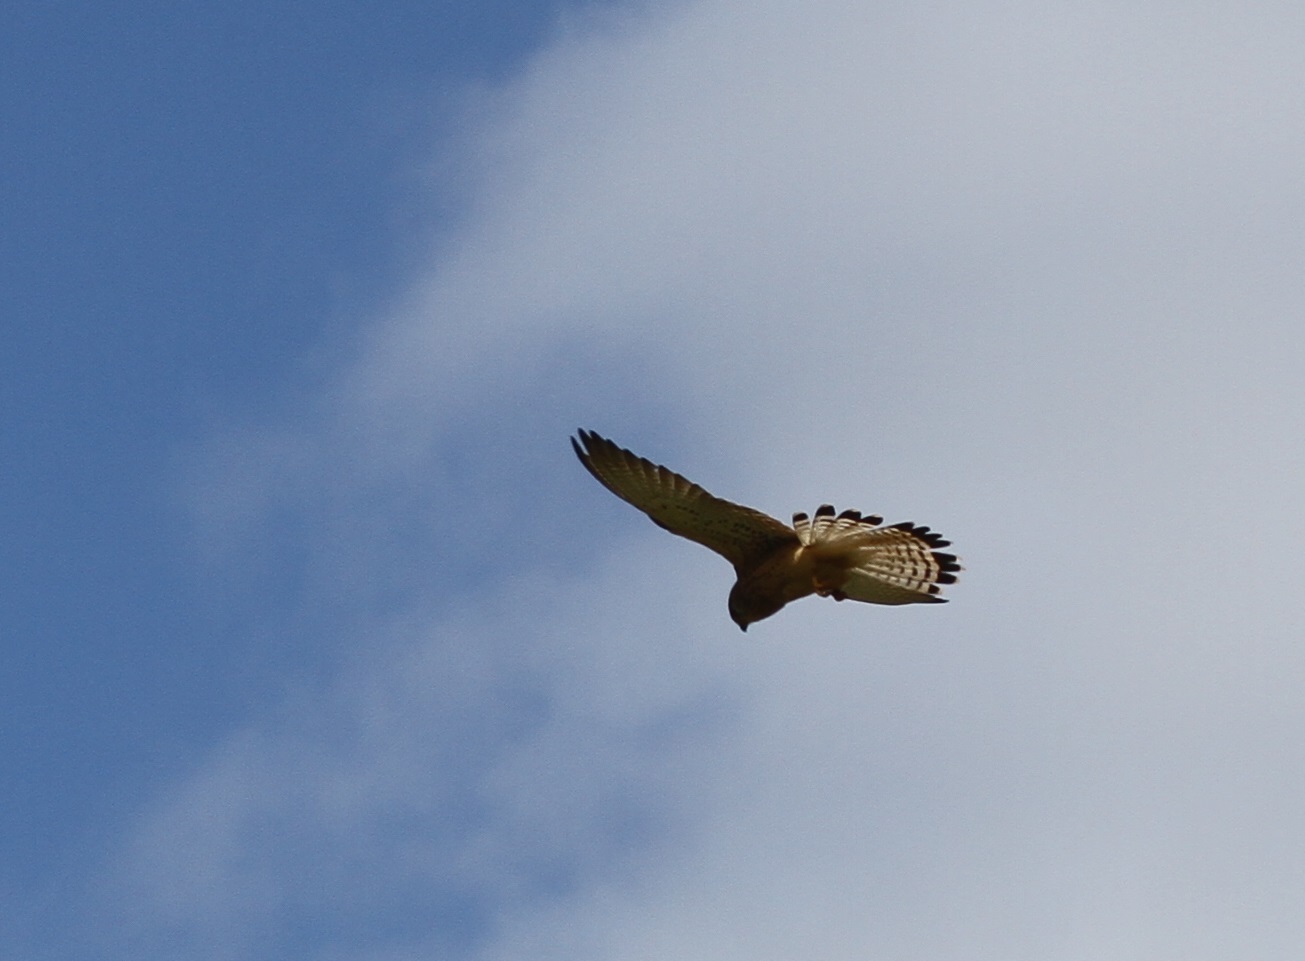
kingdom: Animalia
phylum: Chordata
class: Aves
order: Falconiformes
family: Falconidae
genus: Falco
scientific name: Falco tinnunculus
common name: Common kestrel
